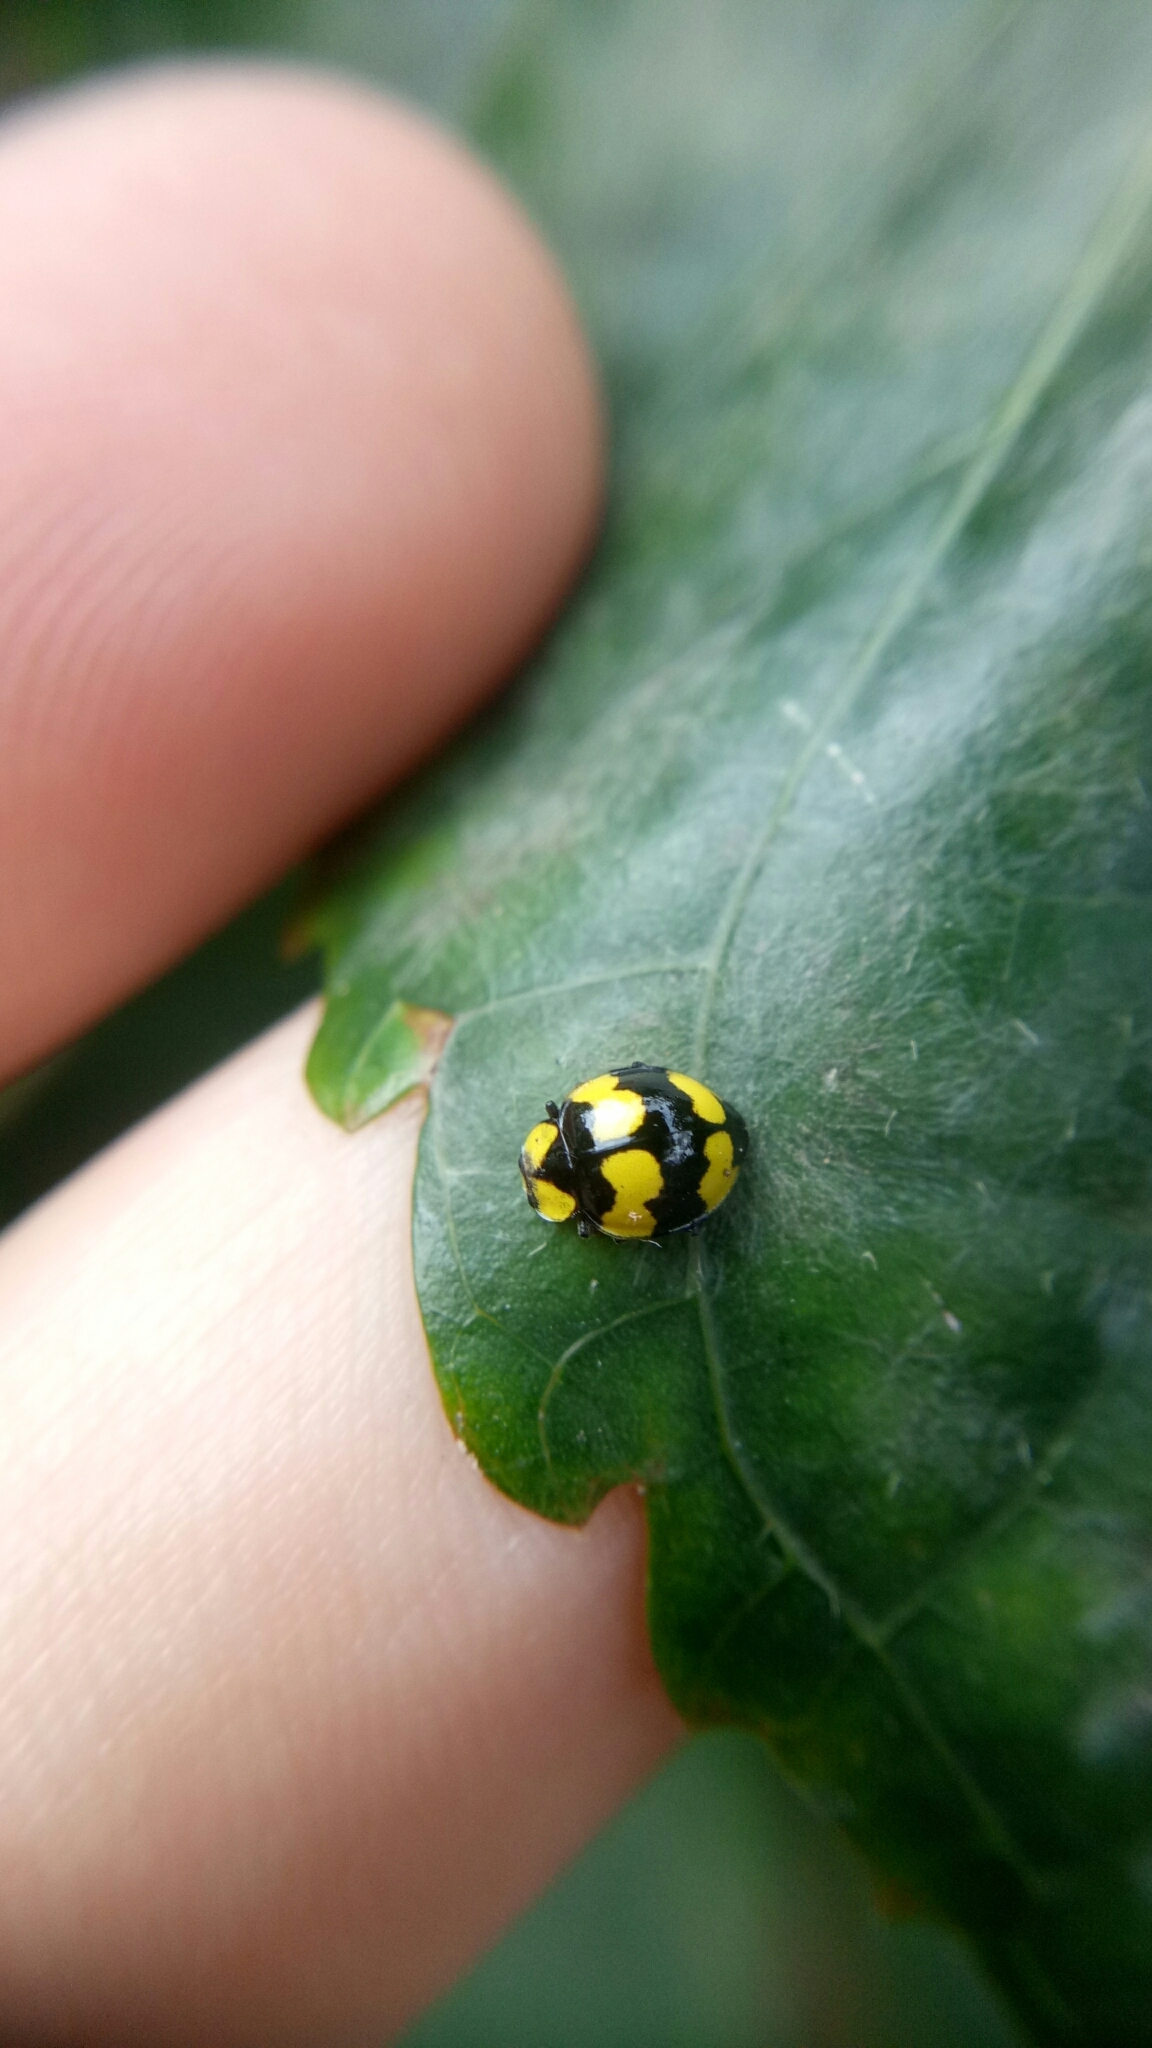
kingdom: Animalia
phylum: Arthropoda
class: Insecta
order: Coleoptera
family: Coccinellidae
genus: Illeis
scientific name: Illeis galbula
